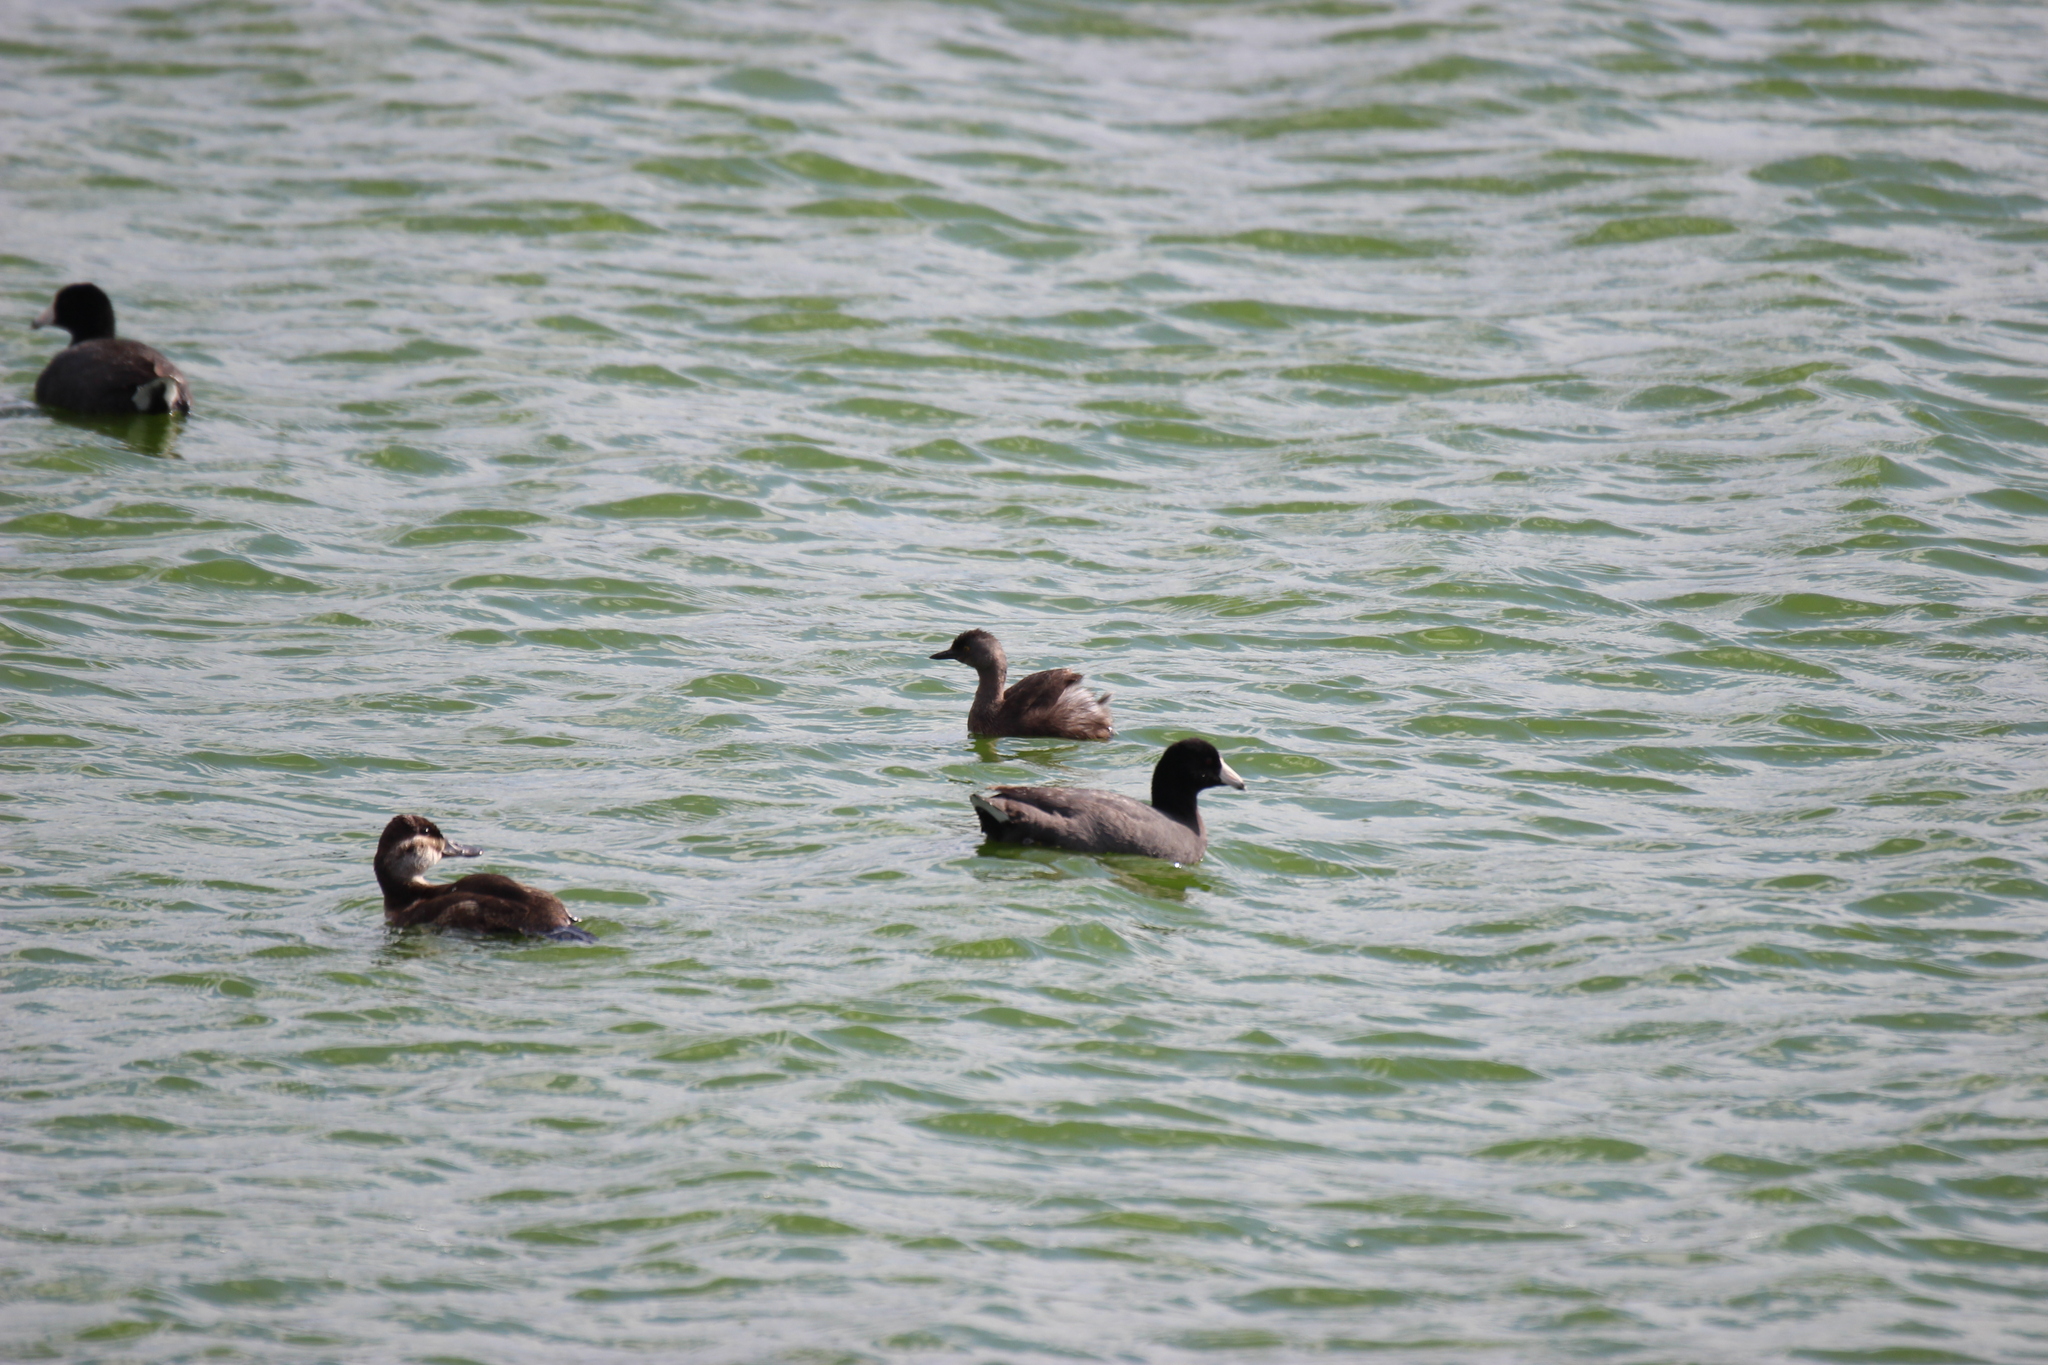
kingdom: Animalia
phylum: Chordata
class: Aves
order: Podicipediformes
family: Podicipedidae
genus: Tachybaptus
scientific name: Tachybaptus dominicus
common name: Least grebe
